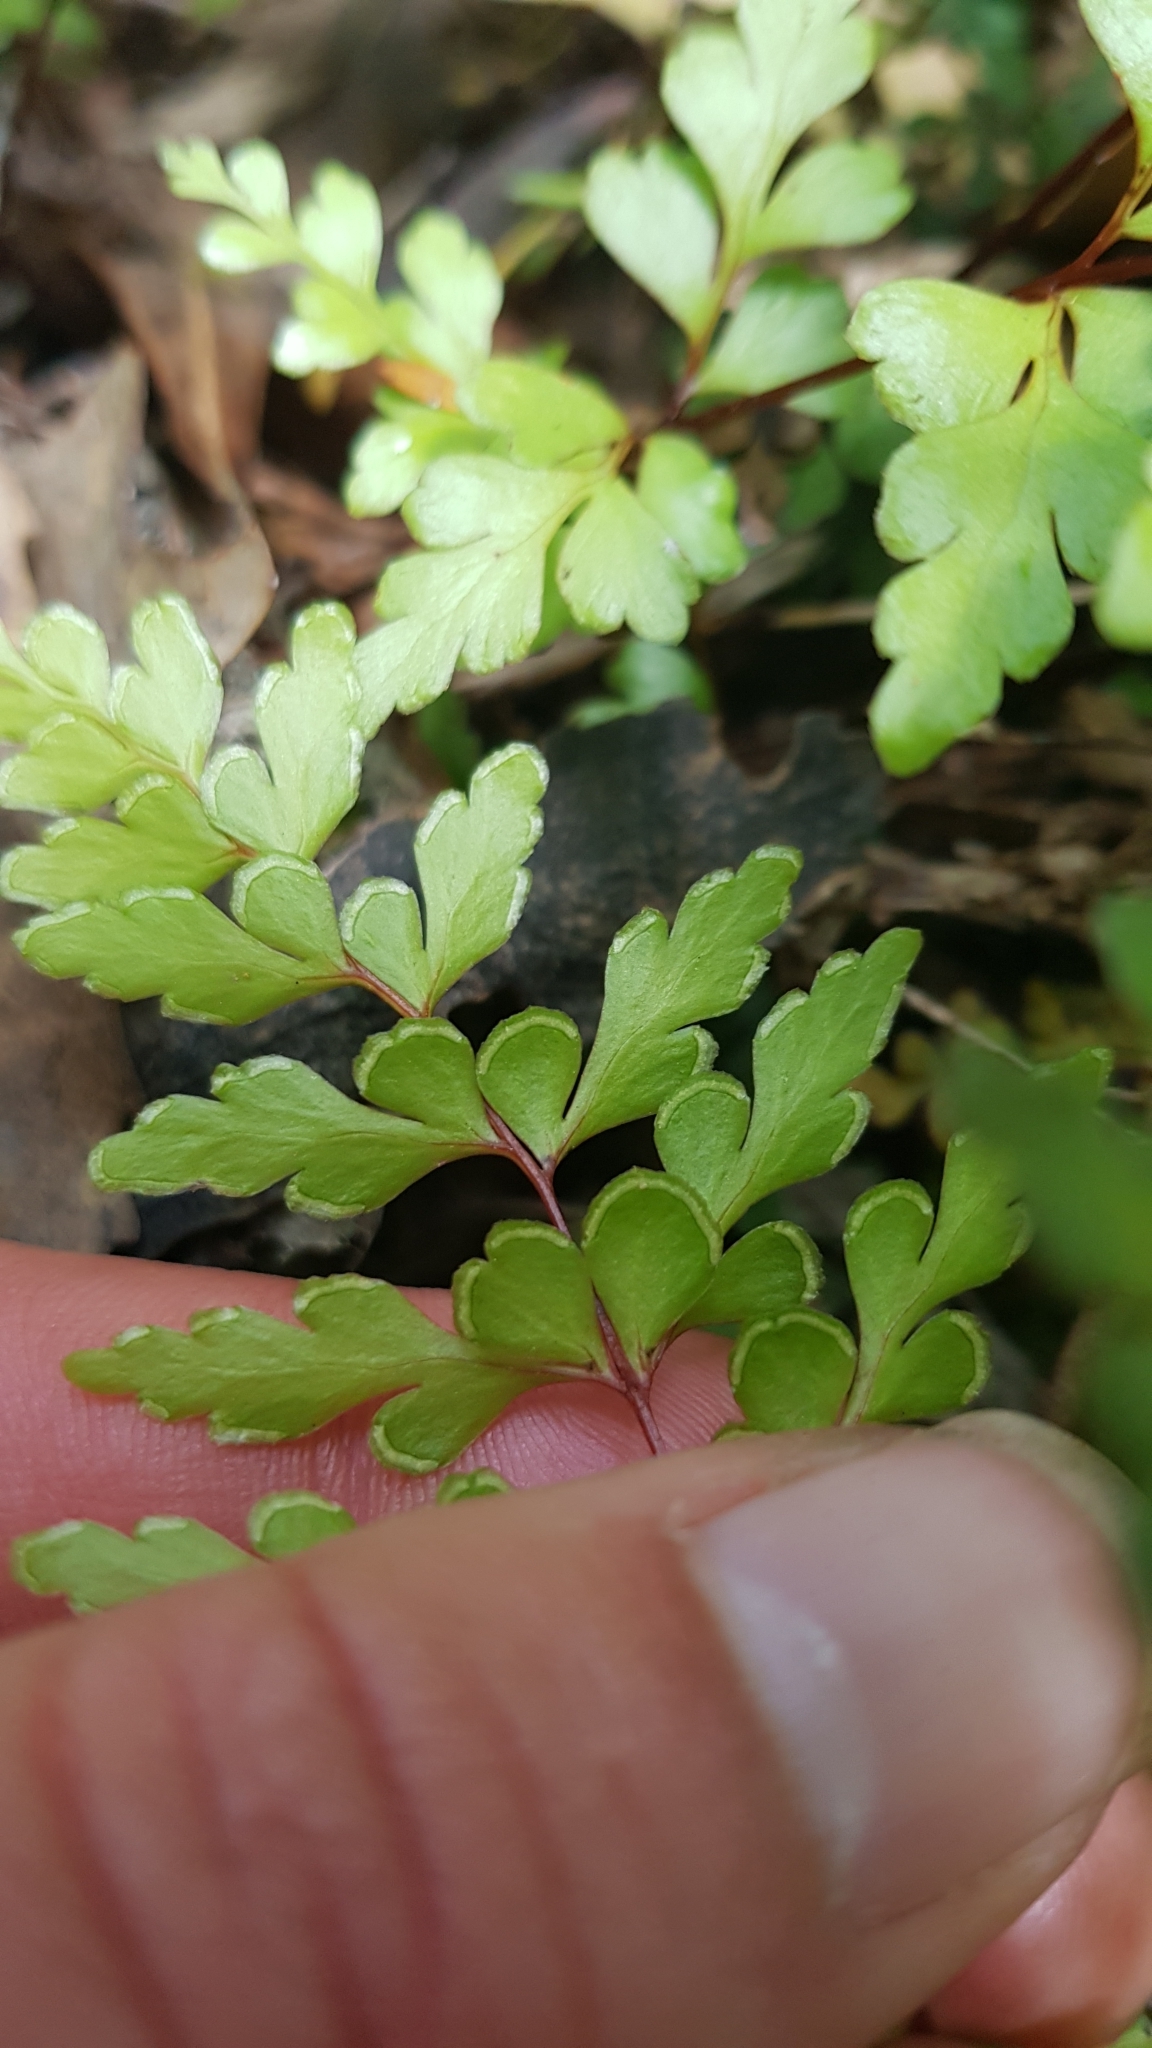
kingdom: Plantae
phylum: Tracheophyta
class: Polypodiopsida
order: Polypodiales
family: Lindsaeaceae
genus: Lindsaea
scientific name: Lindsaea trichomanoides
